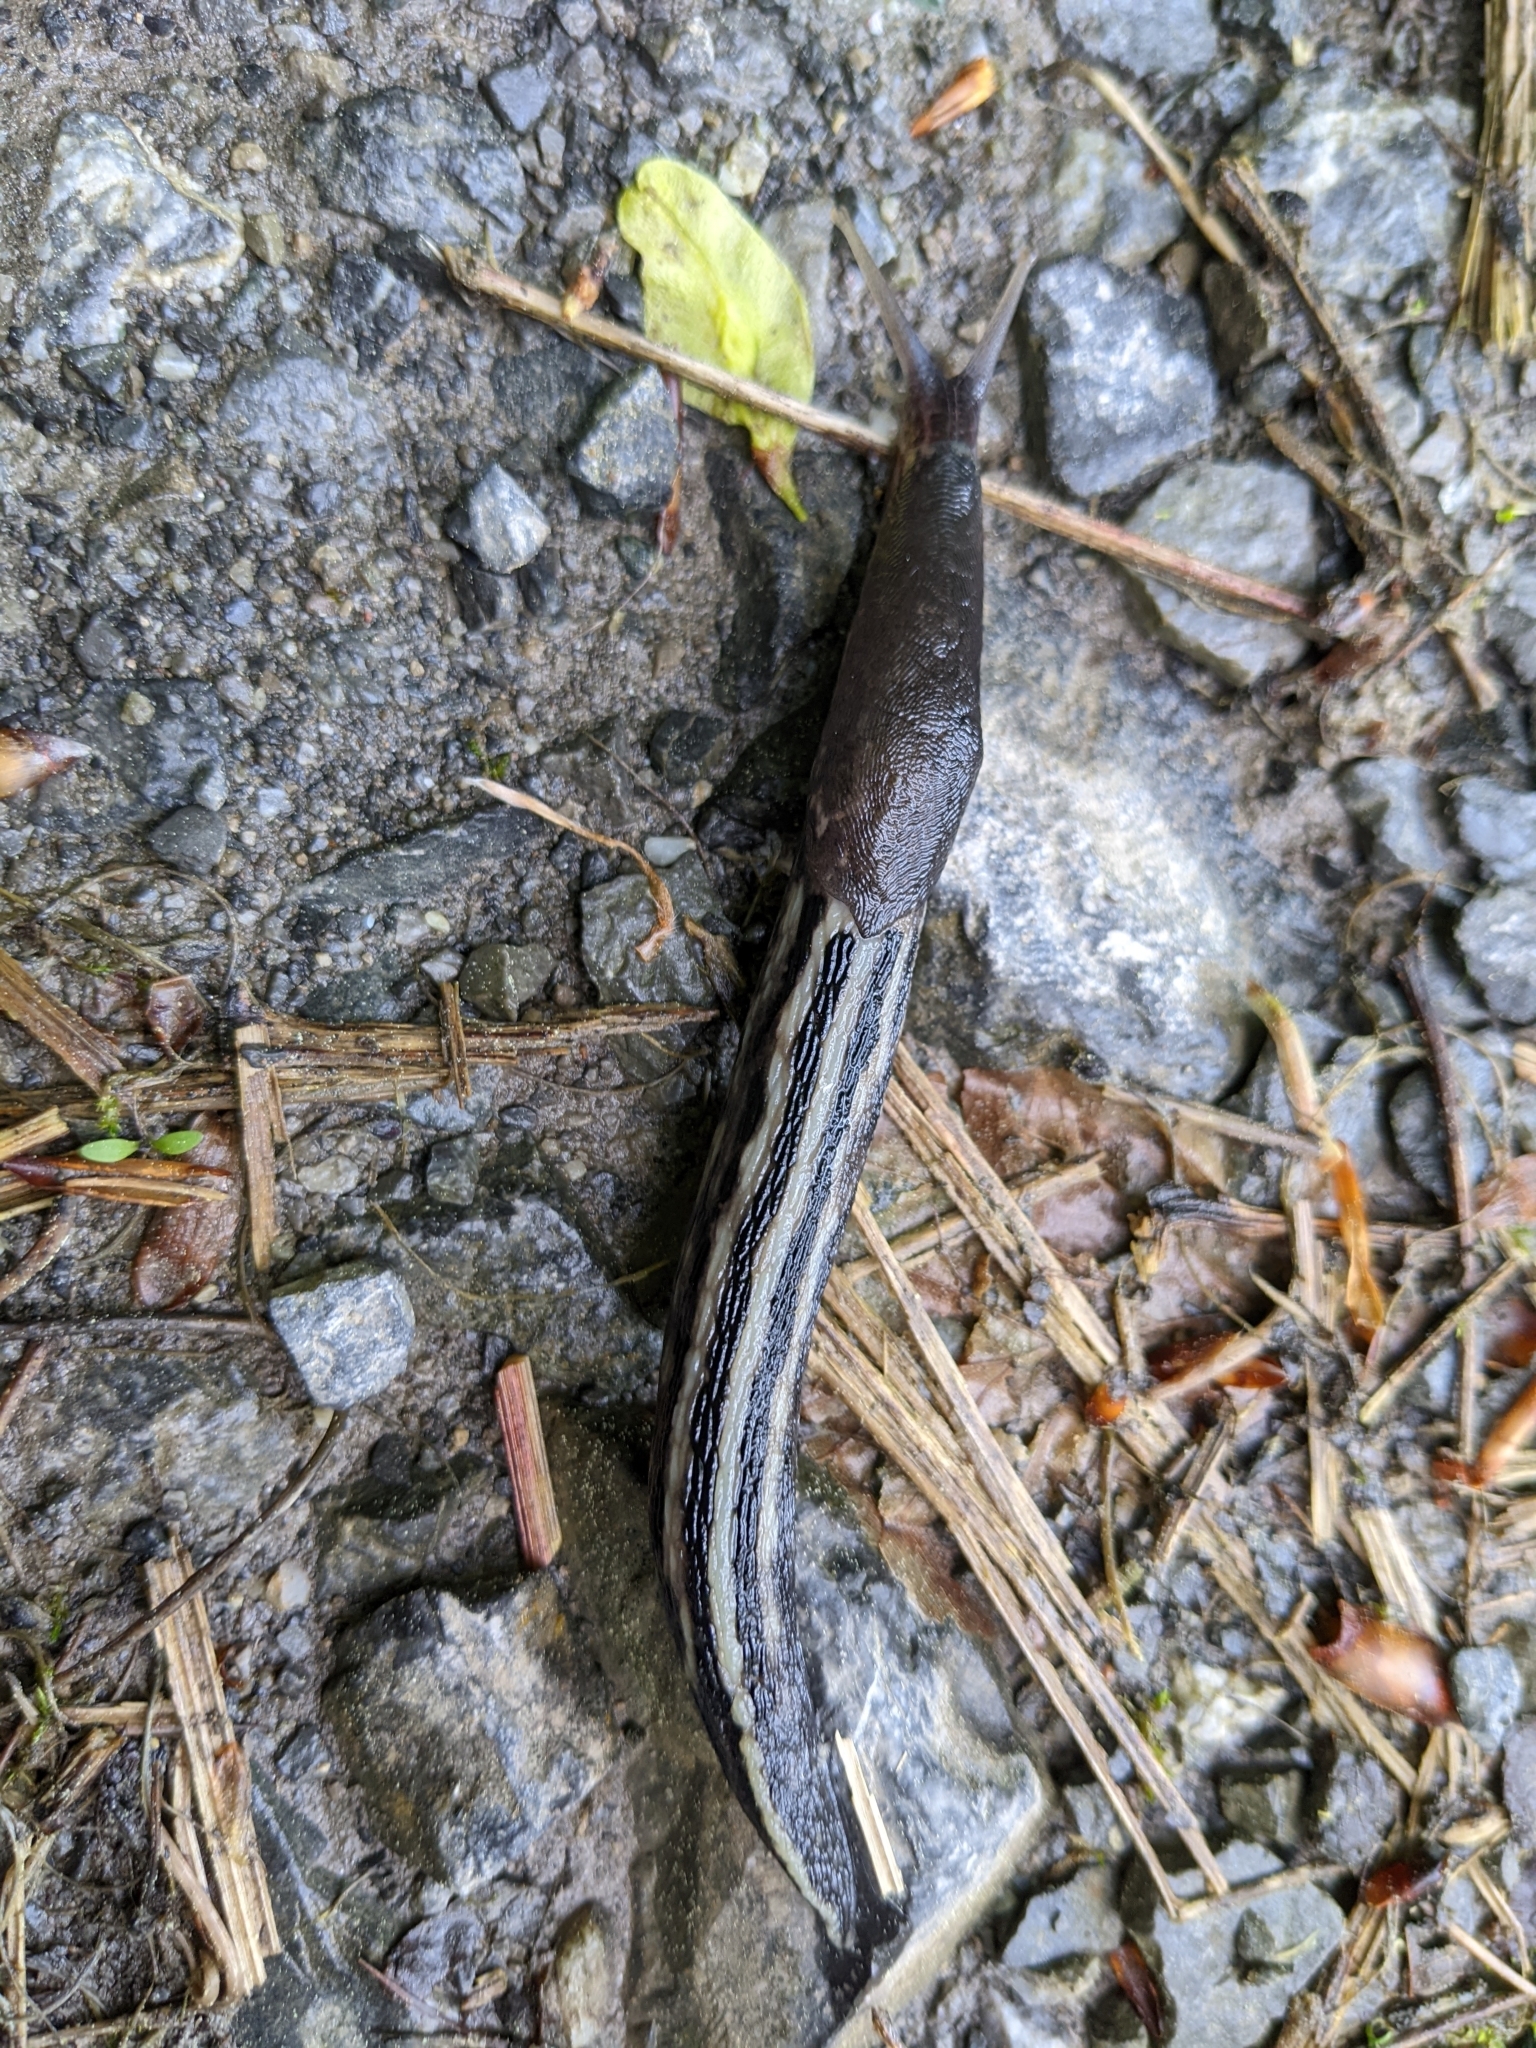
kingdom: Animalia
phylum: Mollusca
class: Gastropoda
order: Stylommatophora
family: Limacidae
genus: Limax
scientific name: Limax cinereoniger
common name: Ash-black slug
